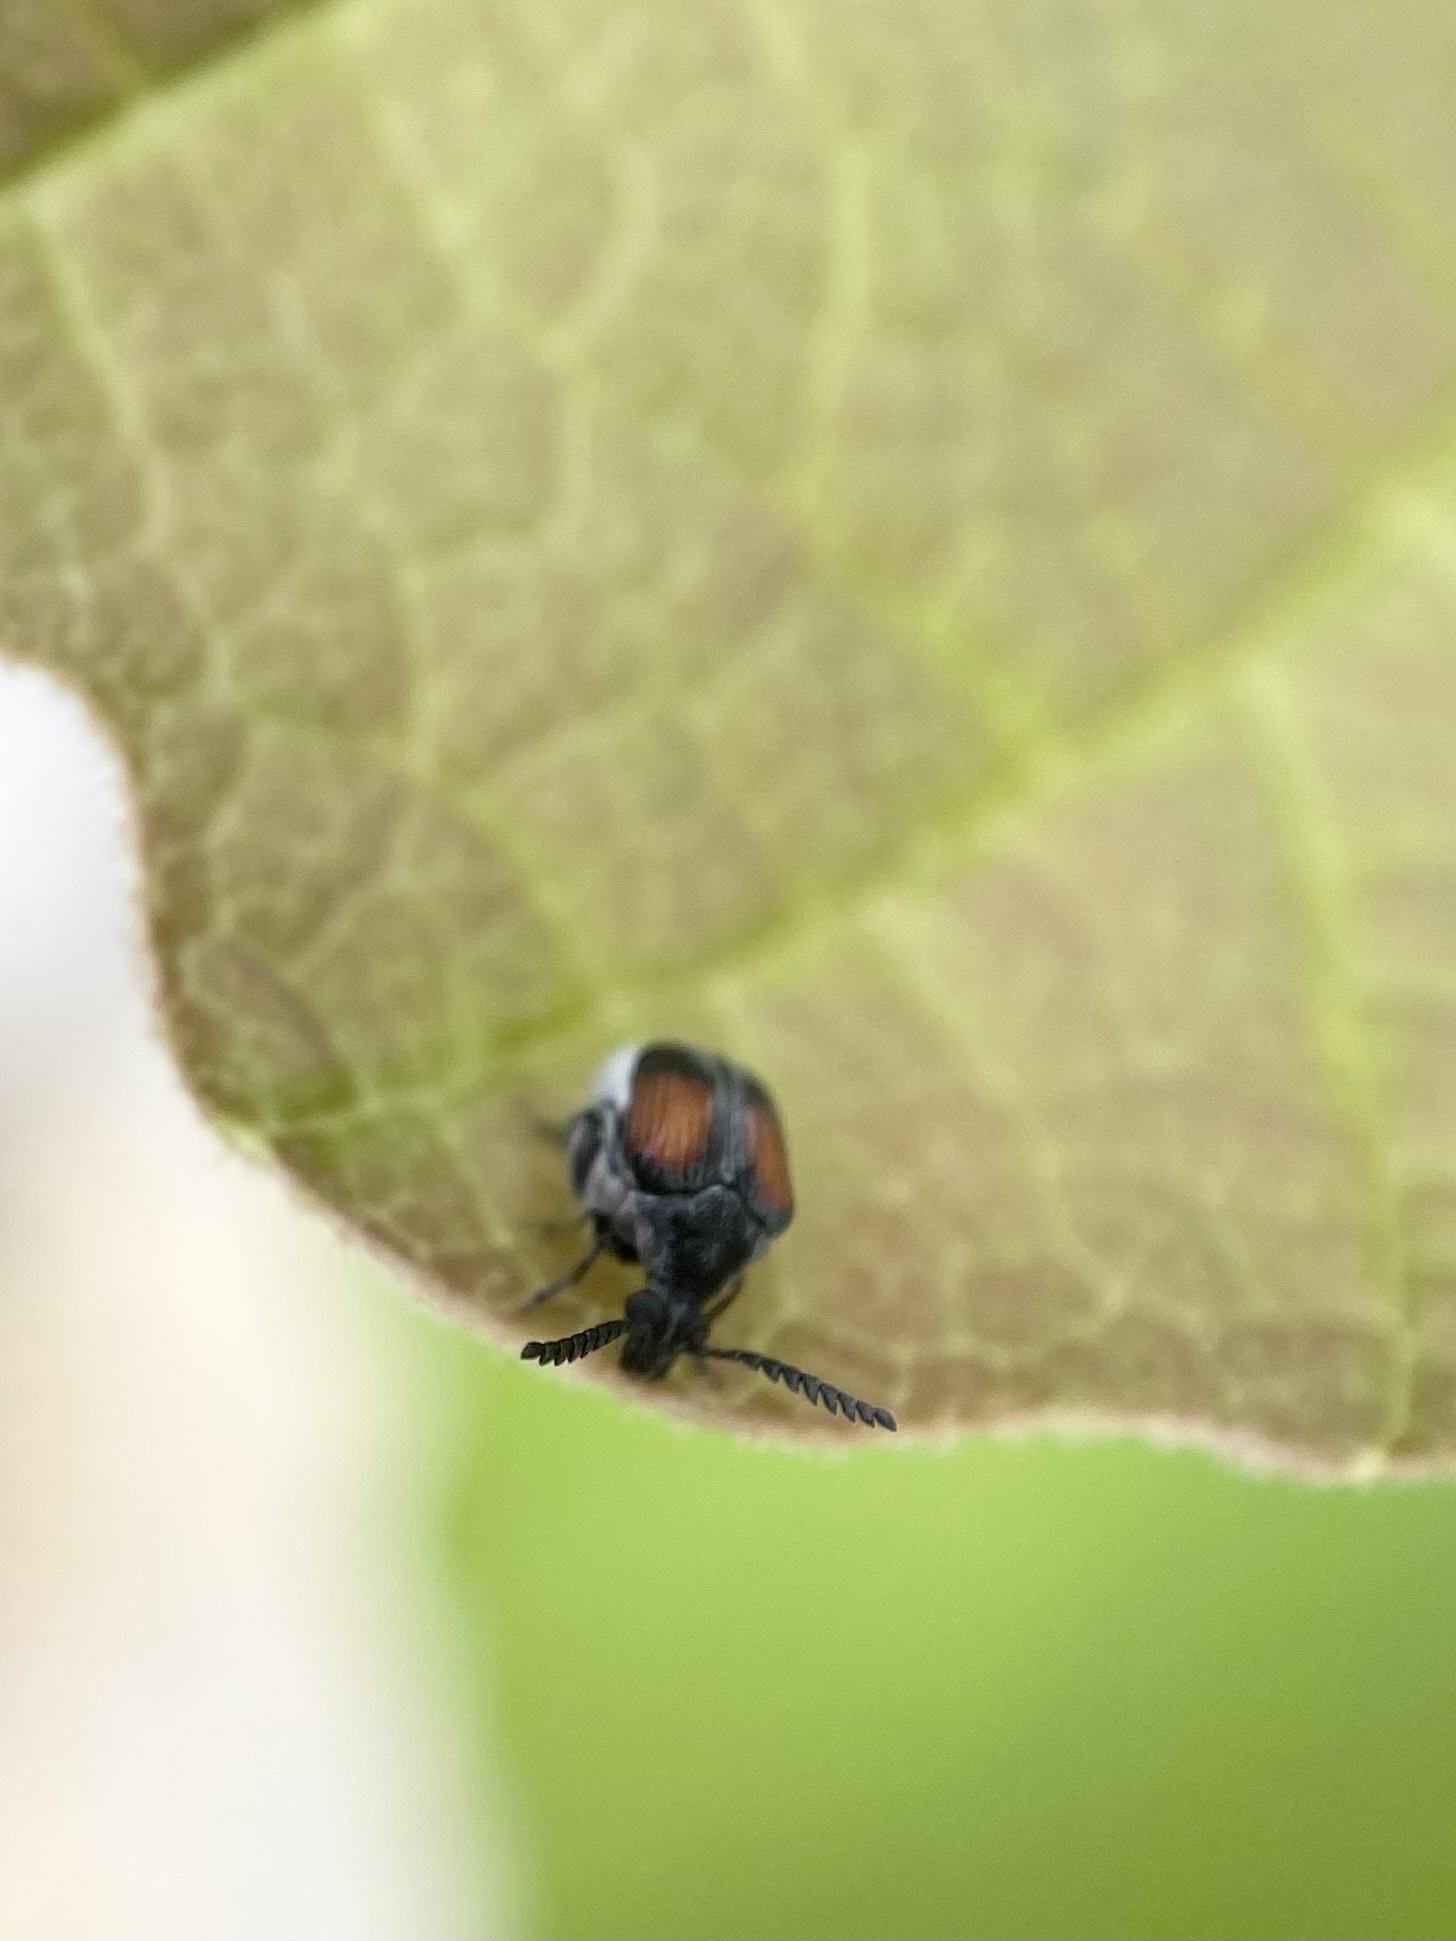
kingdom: Animalia
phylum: Arthropoda
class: Insecta
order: Coleoptera
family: Chrysomelidae
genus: Megacerus
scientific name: Megacerus discoidus
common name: Red megacerus
